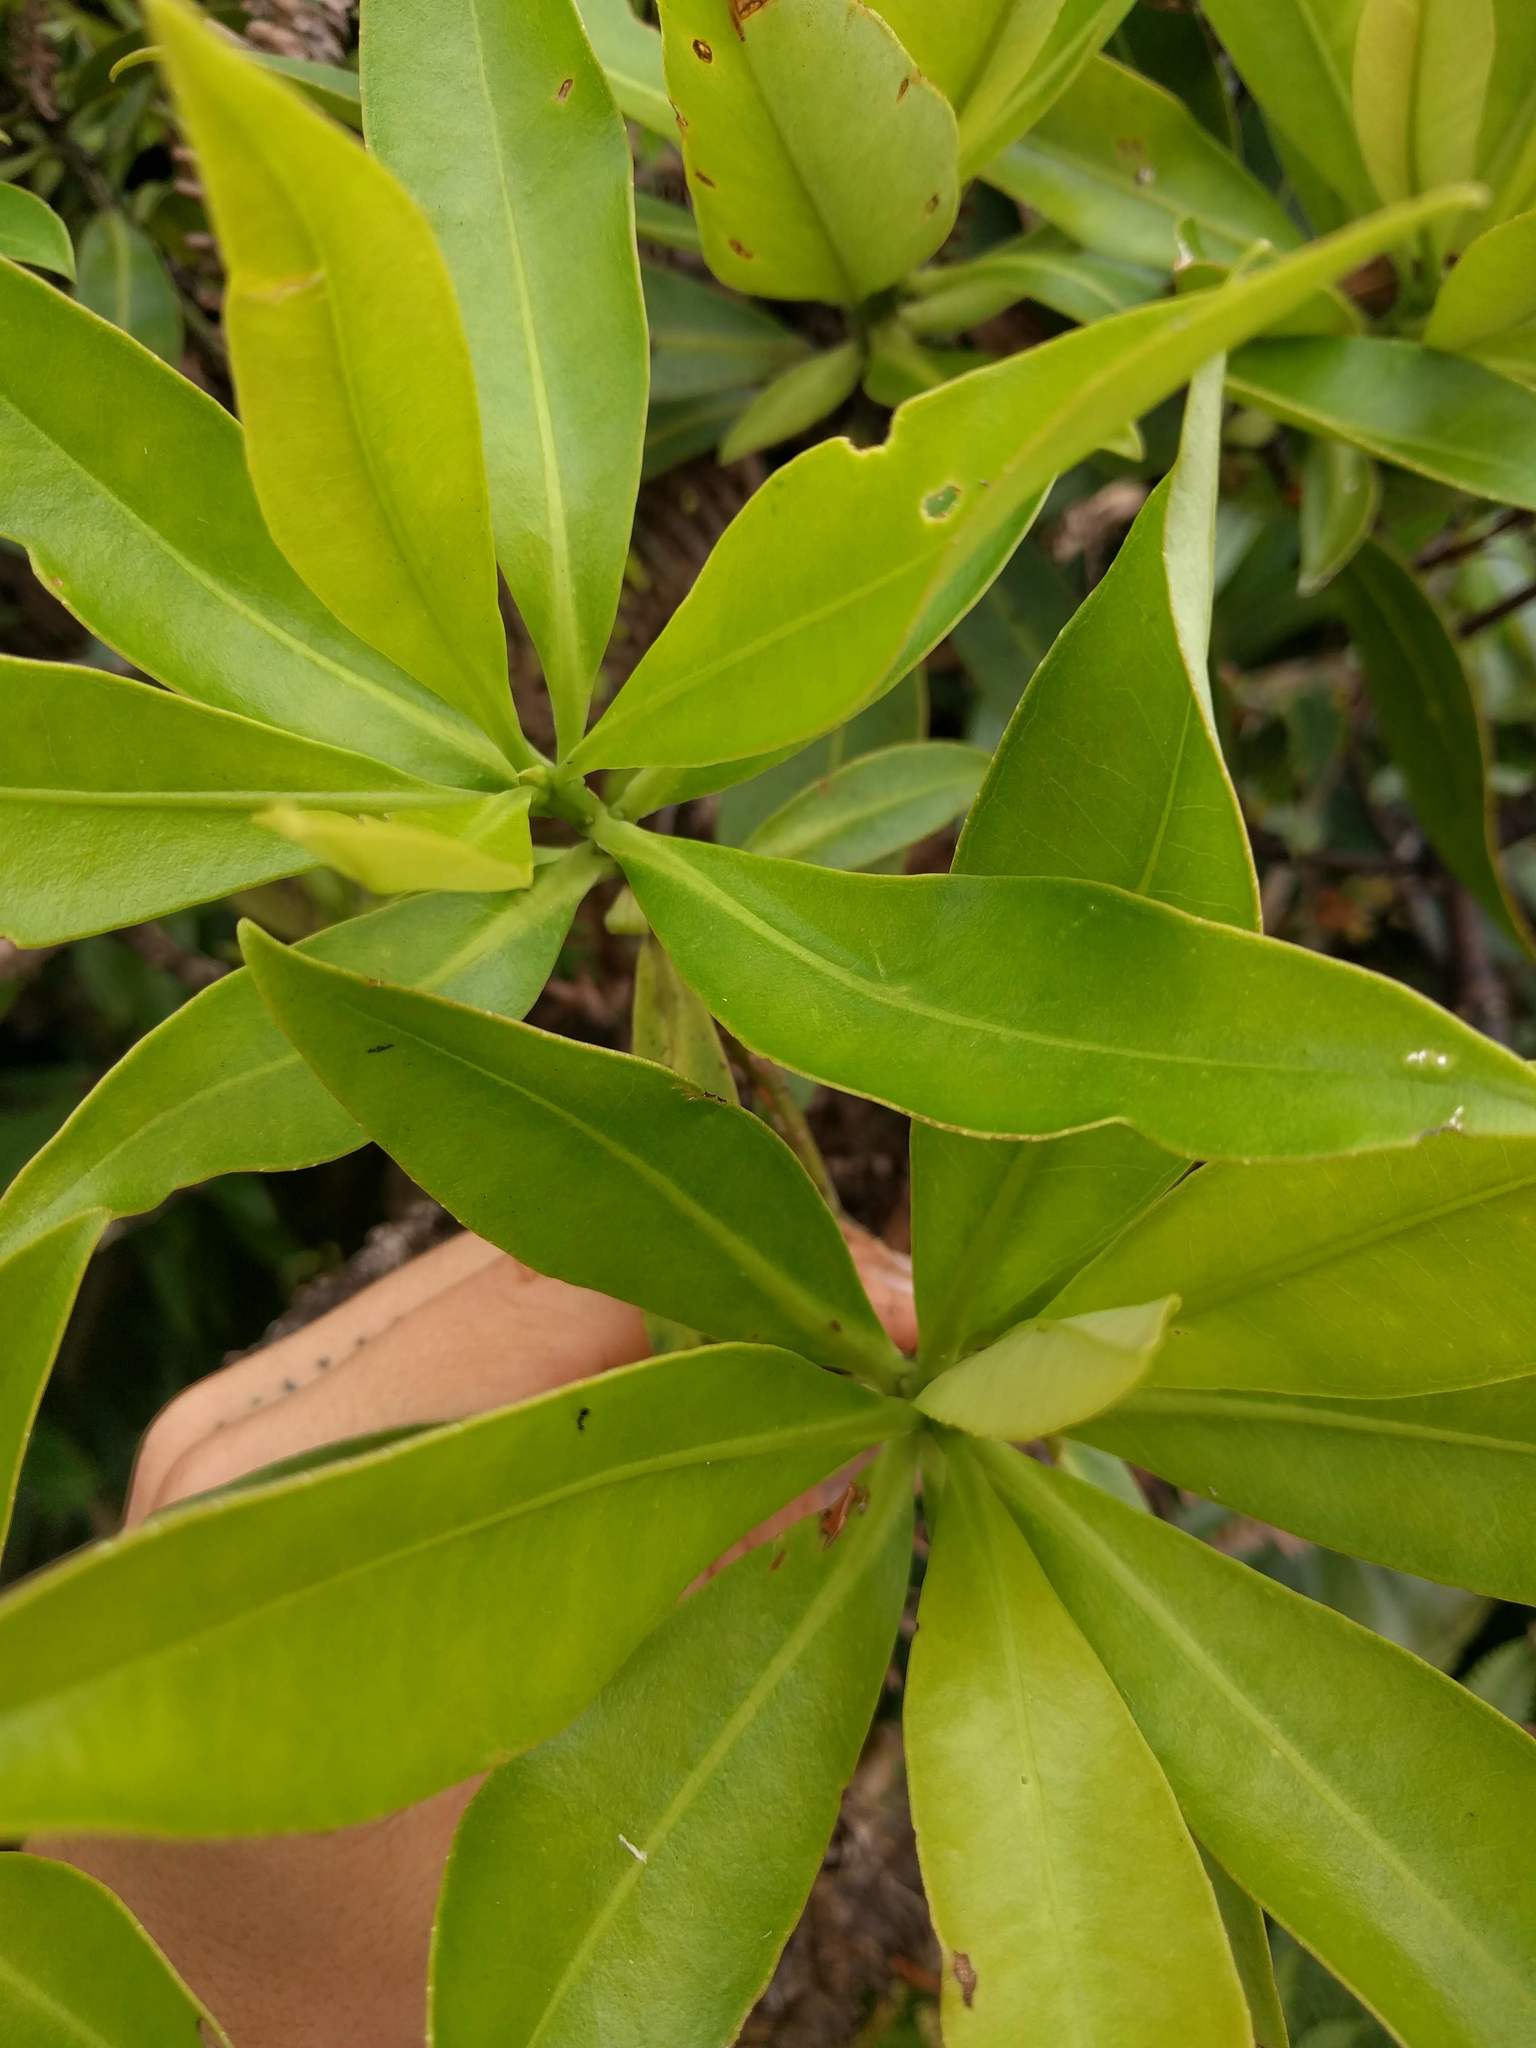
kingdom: Plantae
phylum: Tracheophyta
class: Magnoliopsida
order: Ericales
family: Primulaceae
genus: Myrsine
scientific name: Myrsine degeneri
